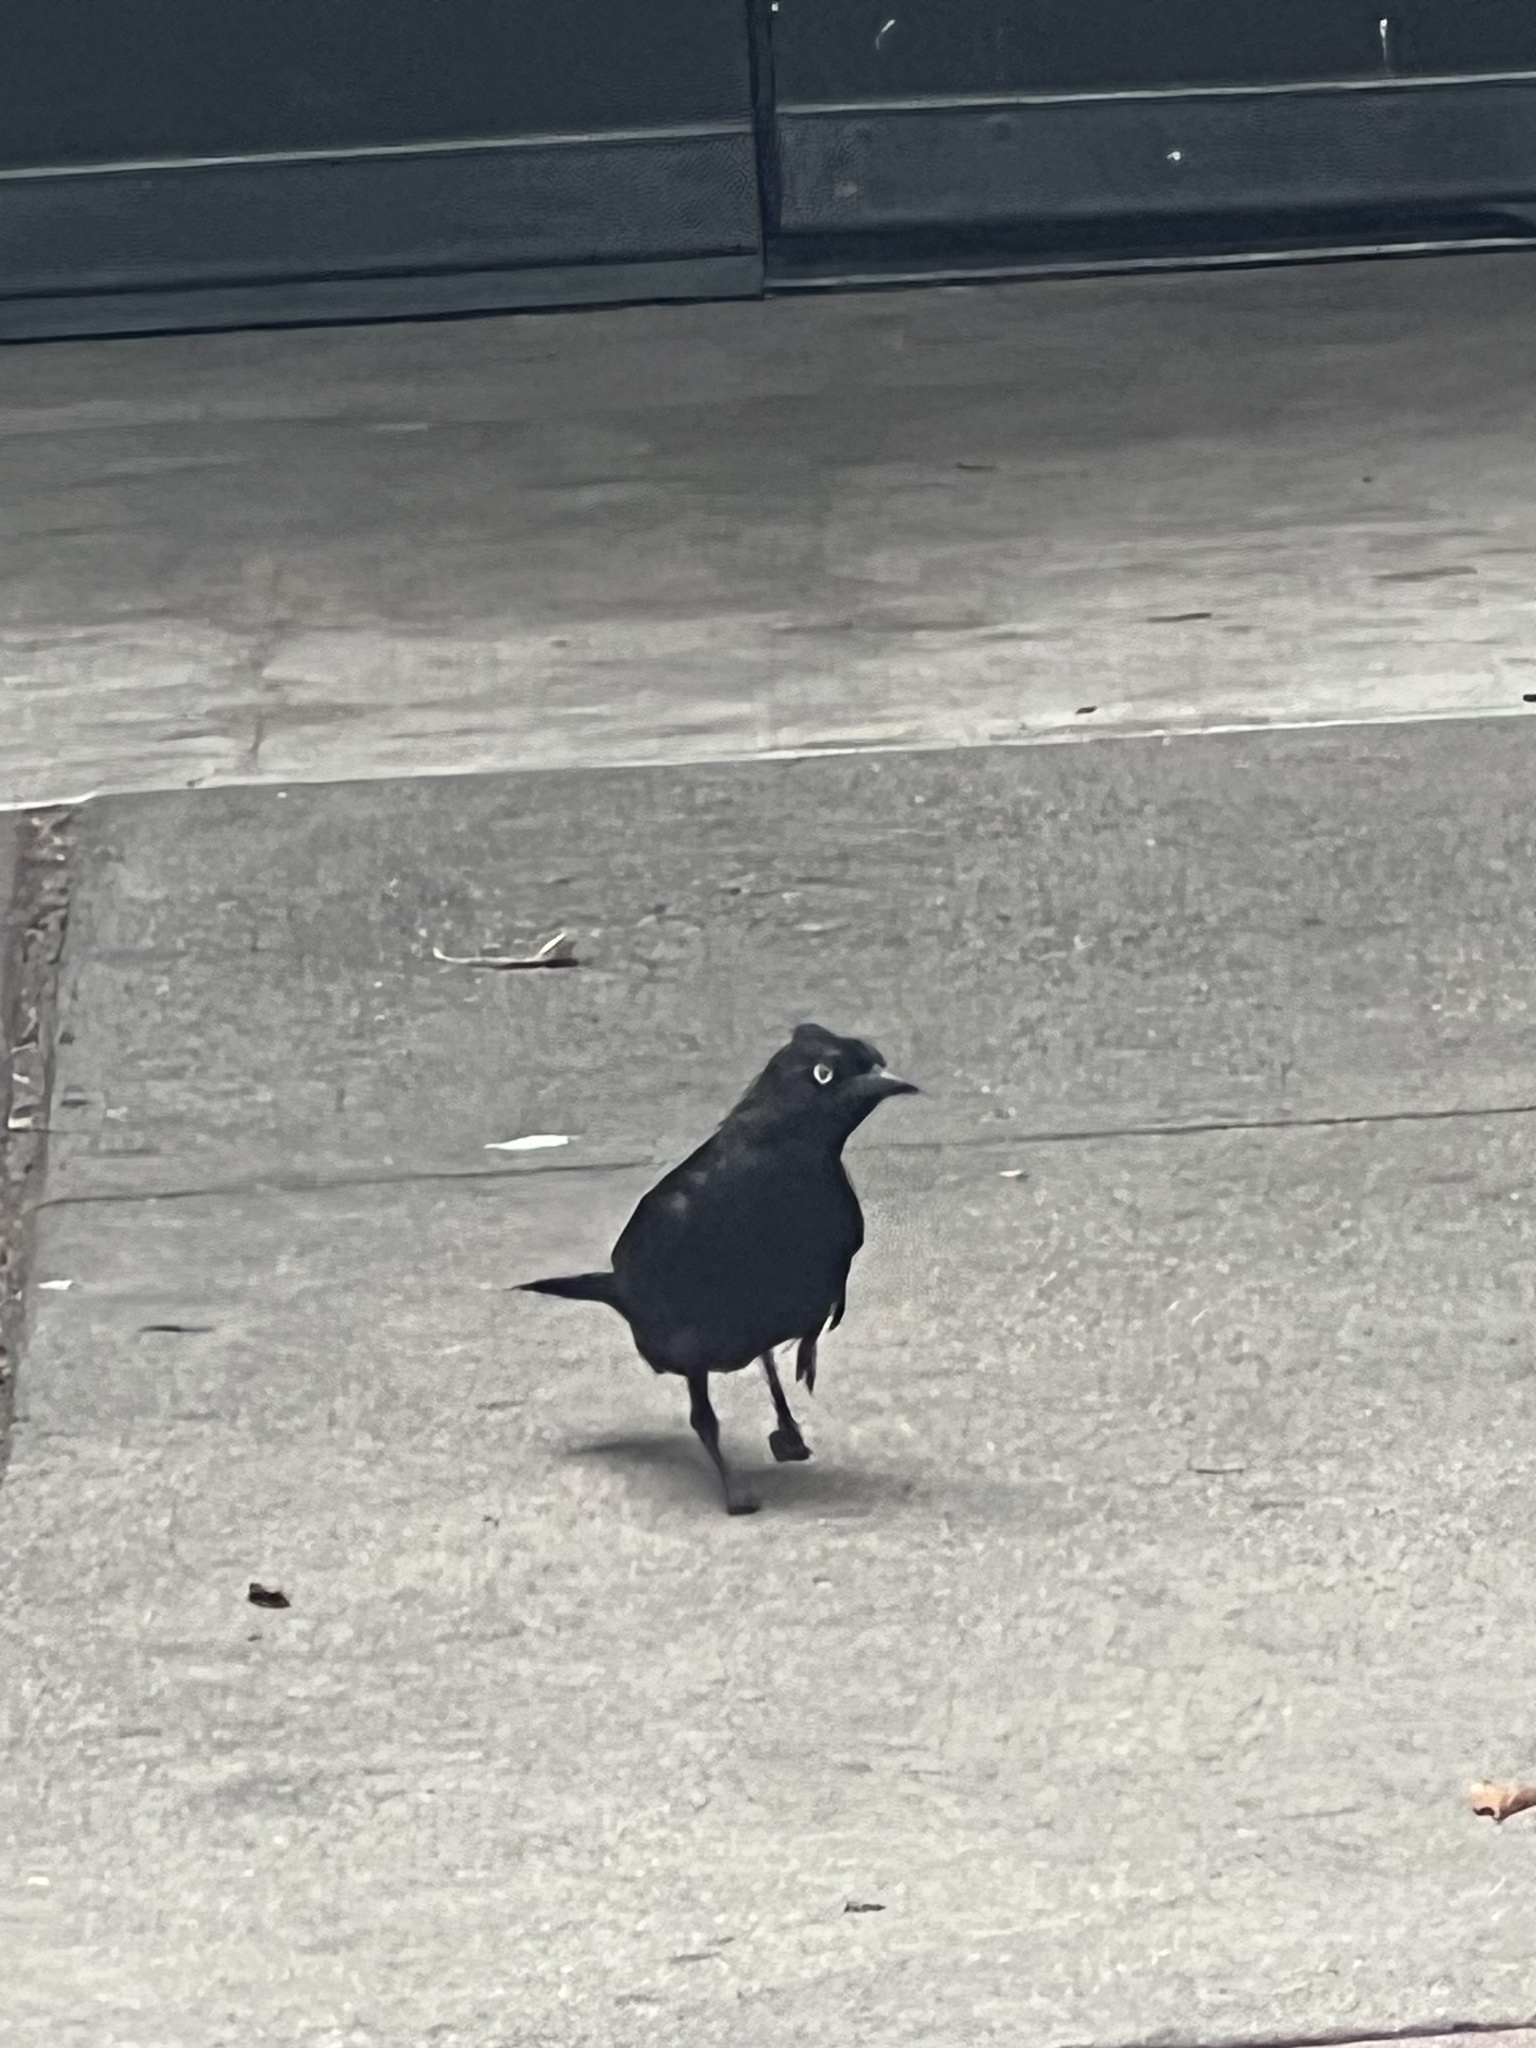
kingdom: Animalia
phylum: Chordata
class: Aves
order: Passeriformes
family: Icteridae
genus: Euphagus
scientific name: Euphagus cyanocephalus
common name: Brewer's blackbird
